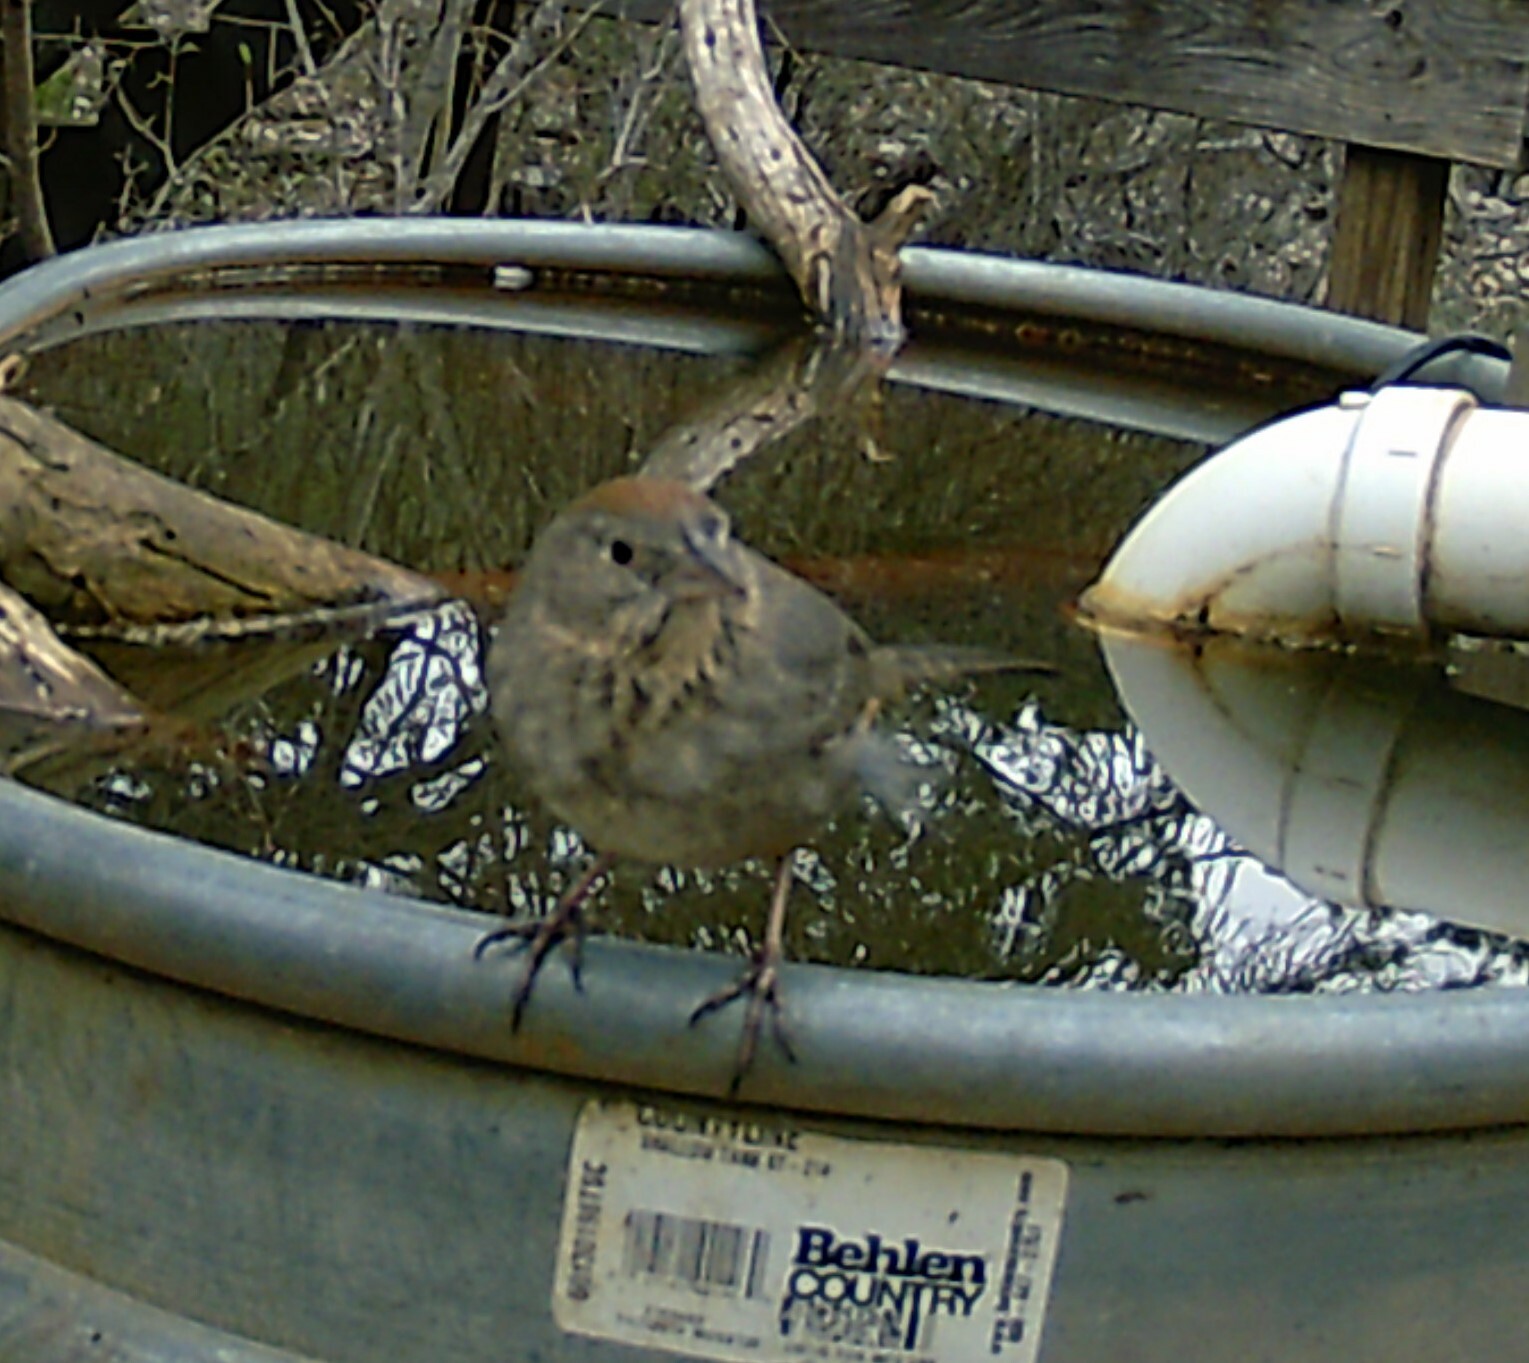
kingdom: Animalia
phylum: Chordata
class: Aves
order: Passeriformes
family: Passerellidae
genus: Melozone
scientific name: Melozone fusca
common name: Canyon towhee
